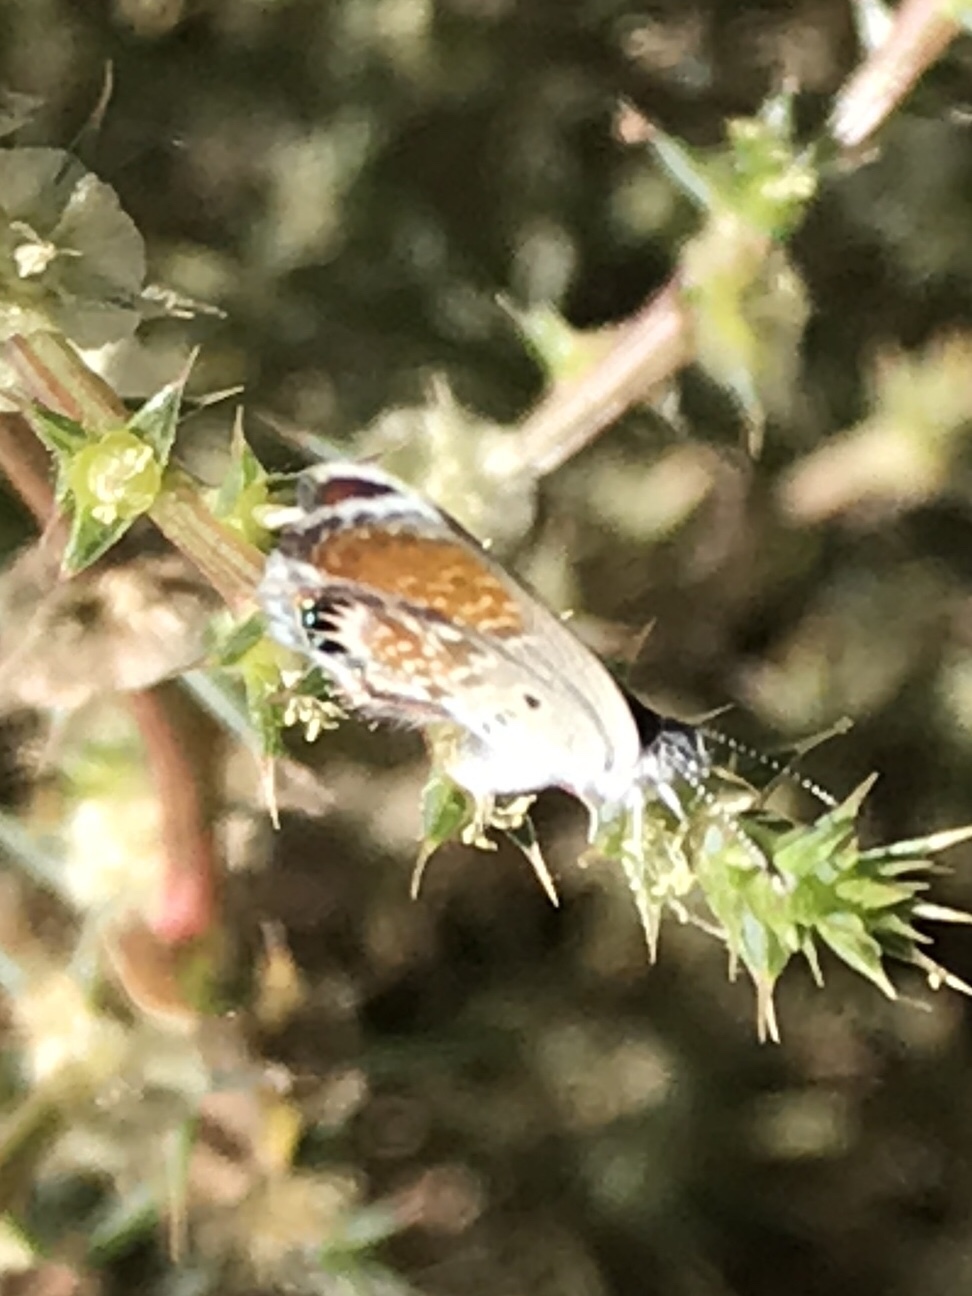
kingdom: Animalia
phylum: Arthropoda
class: Insecta
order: Lepidoptera
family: Lycaenidae
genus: Brephidium
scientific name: Brephidium exilis
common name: Pygmy blue
